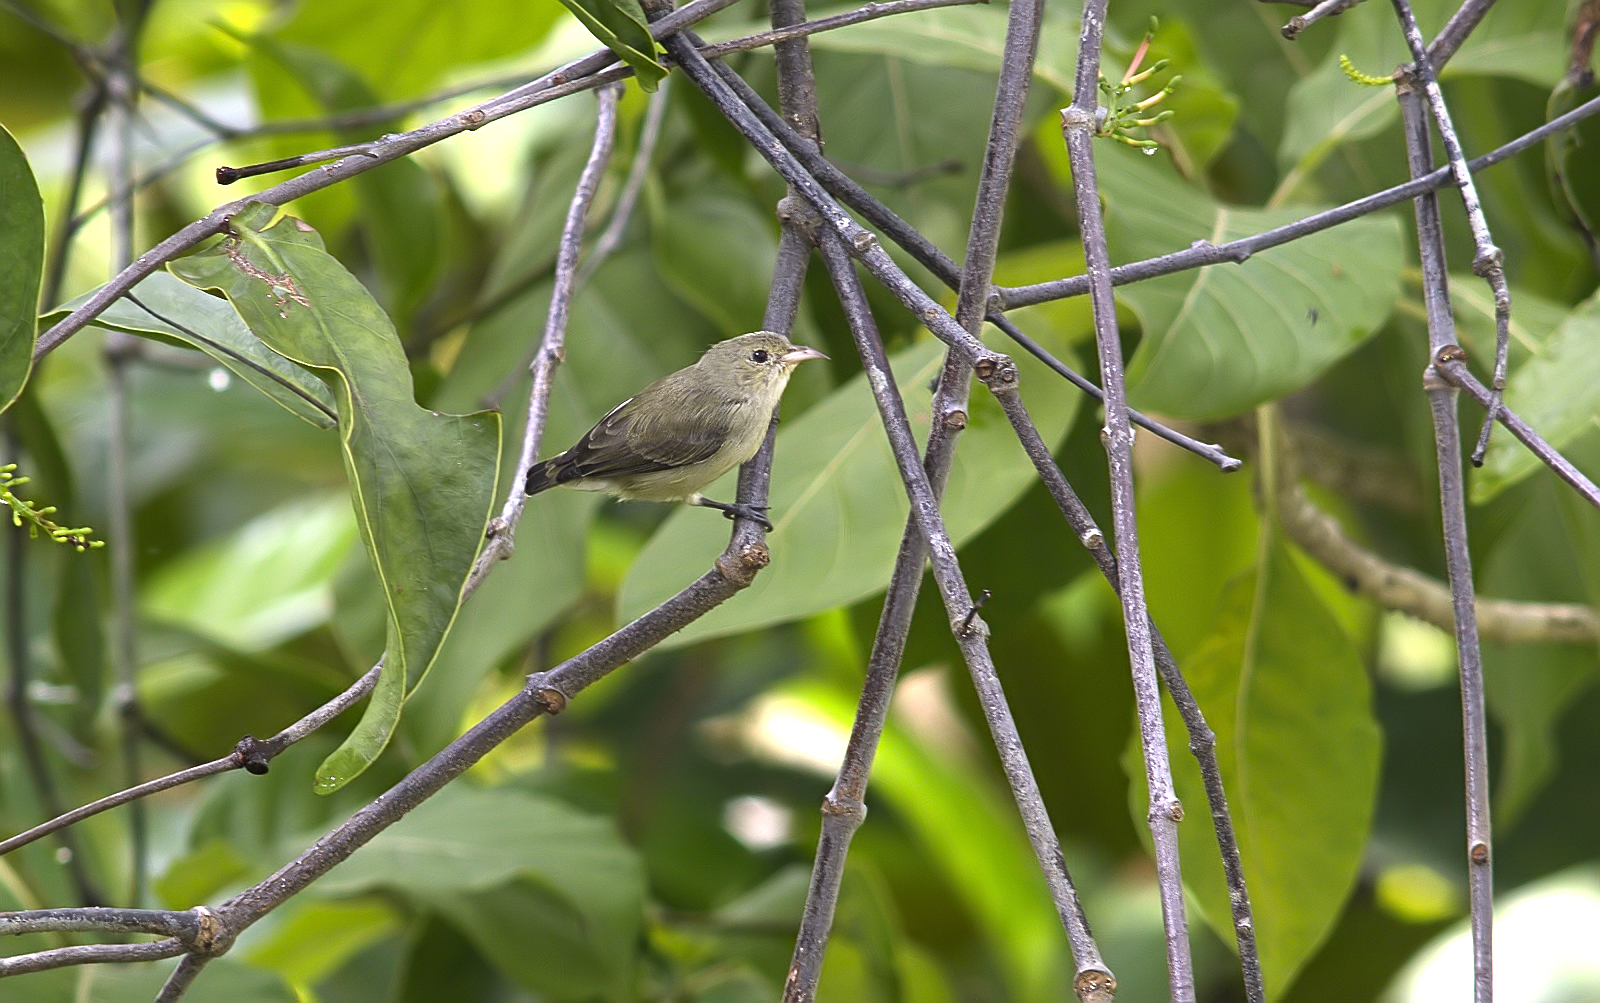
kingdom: Animalia
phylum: Chordata
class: Aves
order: Passeriformes
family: Dicaeidae
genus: Dicaeum
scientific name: Dicaeum erythrorhynchos
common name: Pale-billed flowerpecker
